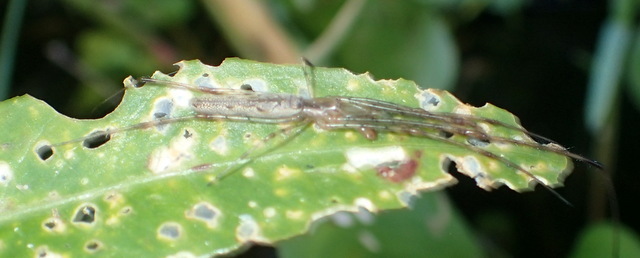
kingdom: Animalia
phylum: Arthropoda
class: Insecta
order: Coleoptera
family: Chrysomelidae
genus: Agasicles
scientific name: Agasicles hygrophila
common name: Alligatorweed flea beetle
